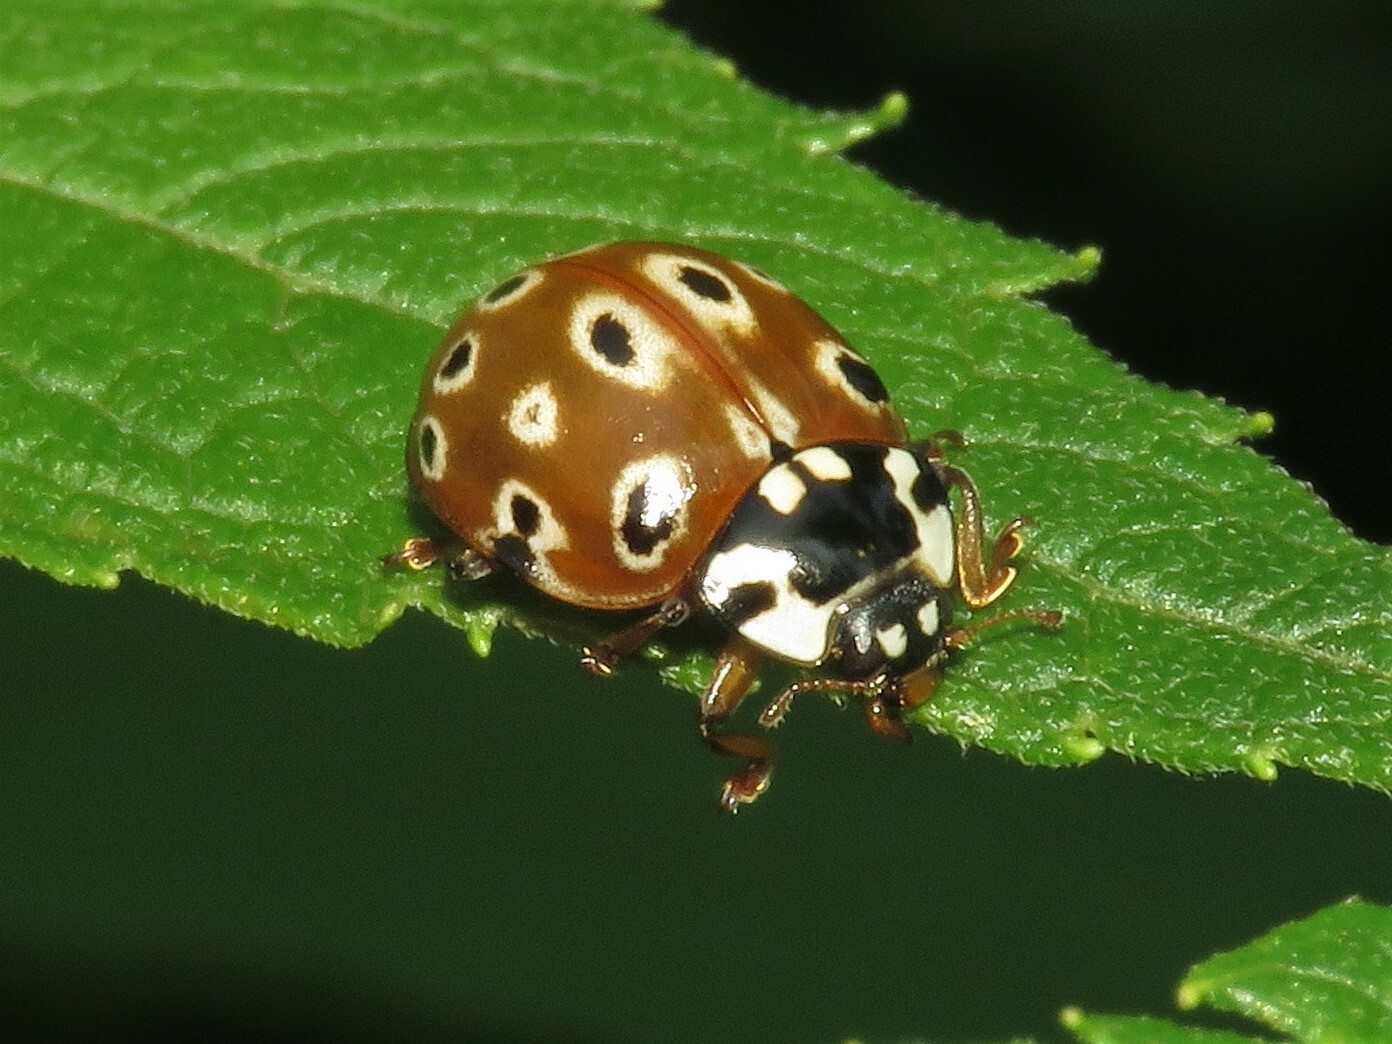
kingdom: Animalia
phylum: Arthropoda
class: Insecta
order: Coleoptera
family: Coccinellidae
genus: Anatis
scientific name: Anatis mali
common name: Eye-spotted lady beetle
